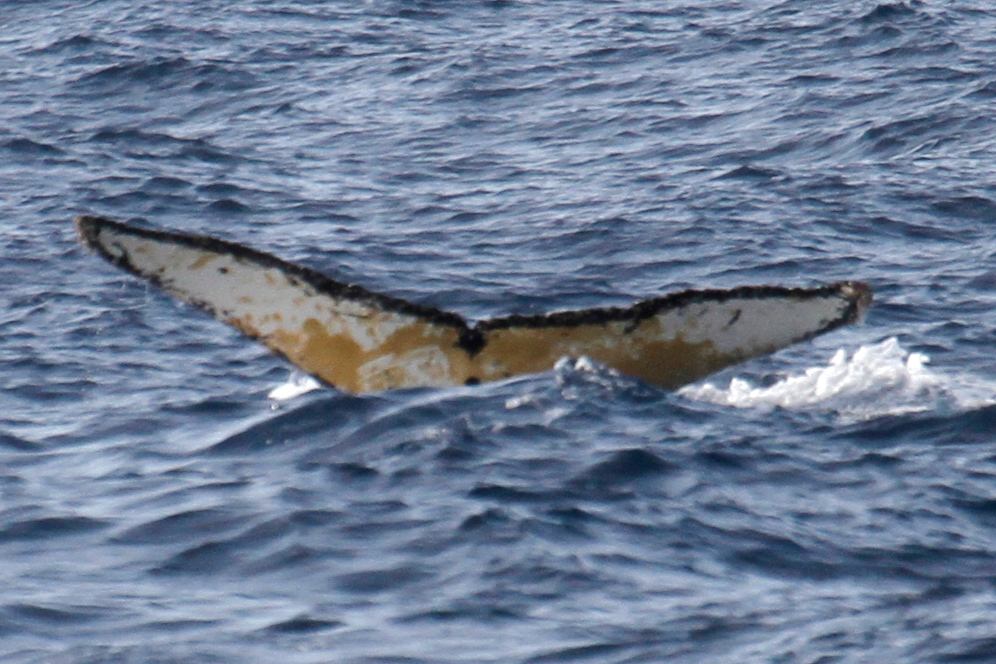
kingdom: Animalia
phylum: Chordata
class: Mammalia
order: Cetacea
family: Balaenopteridae
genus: Megaptera
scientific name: Megaptera novaeangliae
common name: Humpback whale
